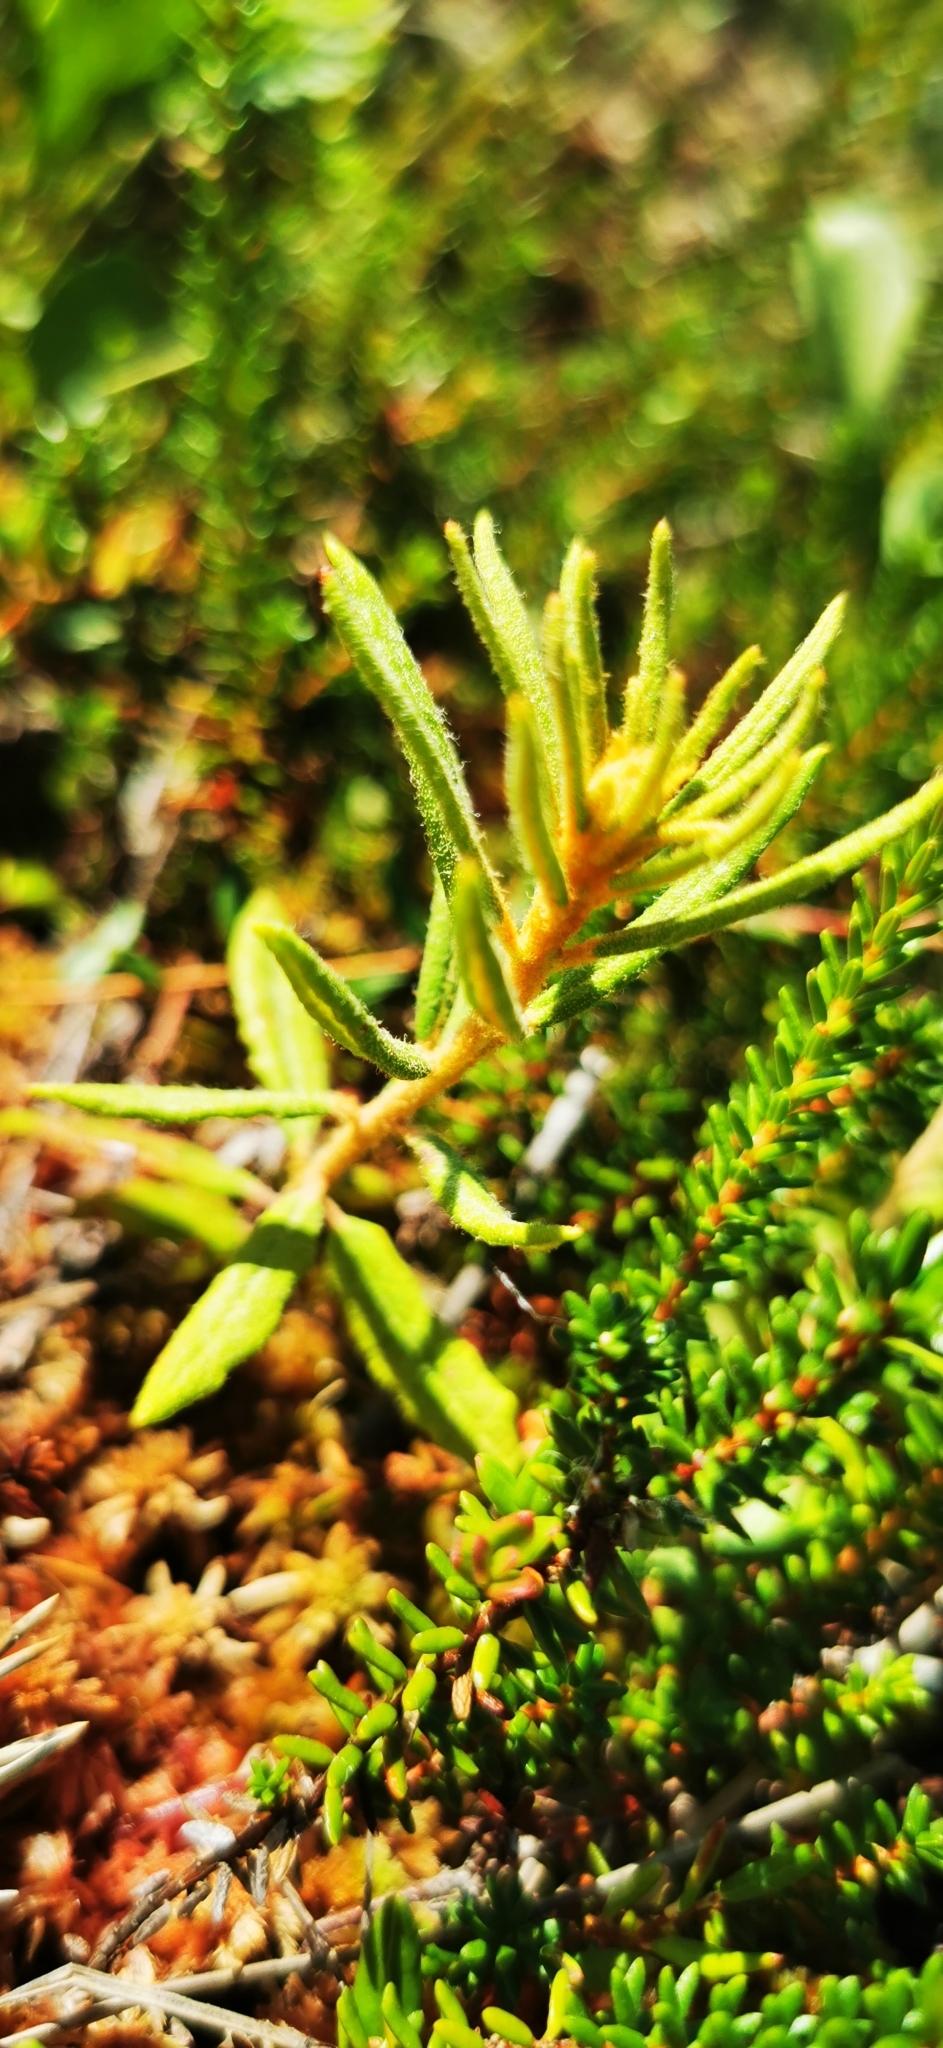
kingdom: Plantae
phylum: Tracheophyta
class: Magnoliopsida
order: Ericales
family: Ericaceae
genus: Rhododendron
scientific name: Rhododendron tomentosum
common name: Marsh labrador tea
